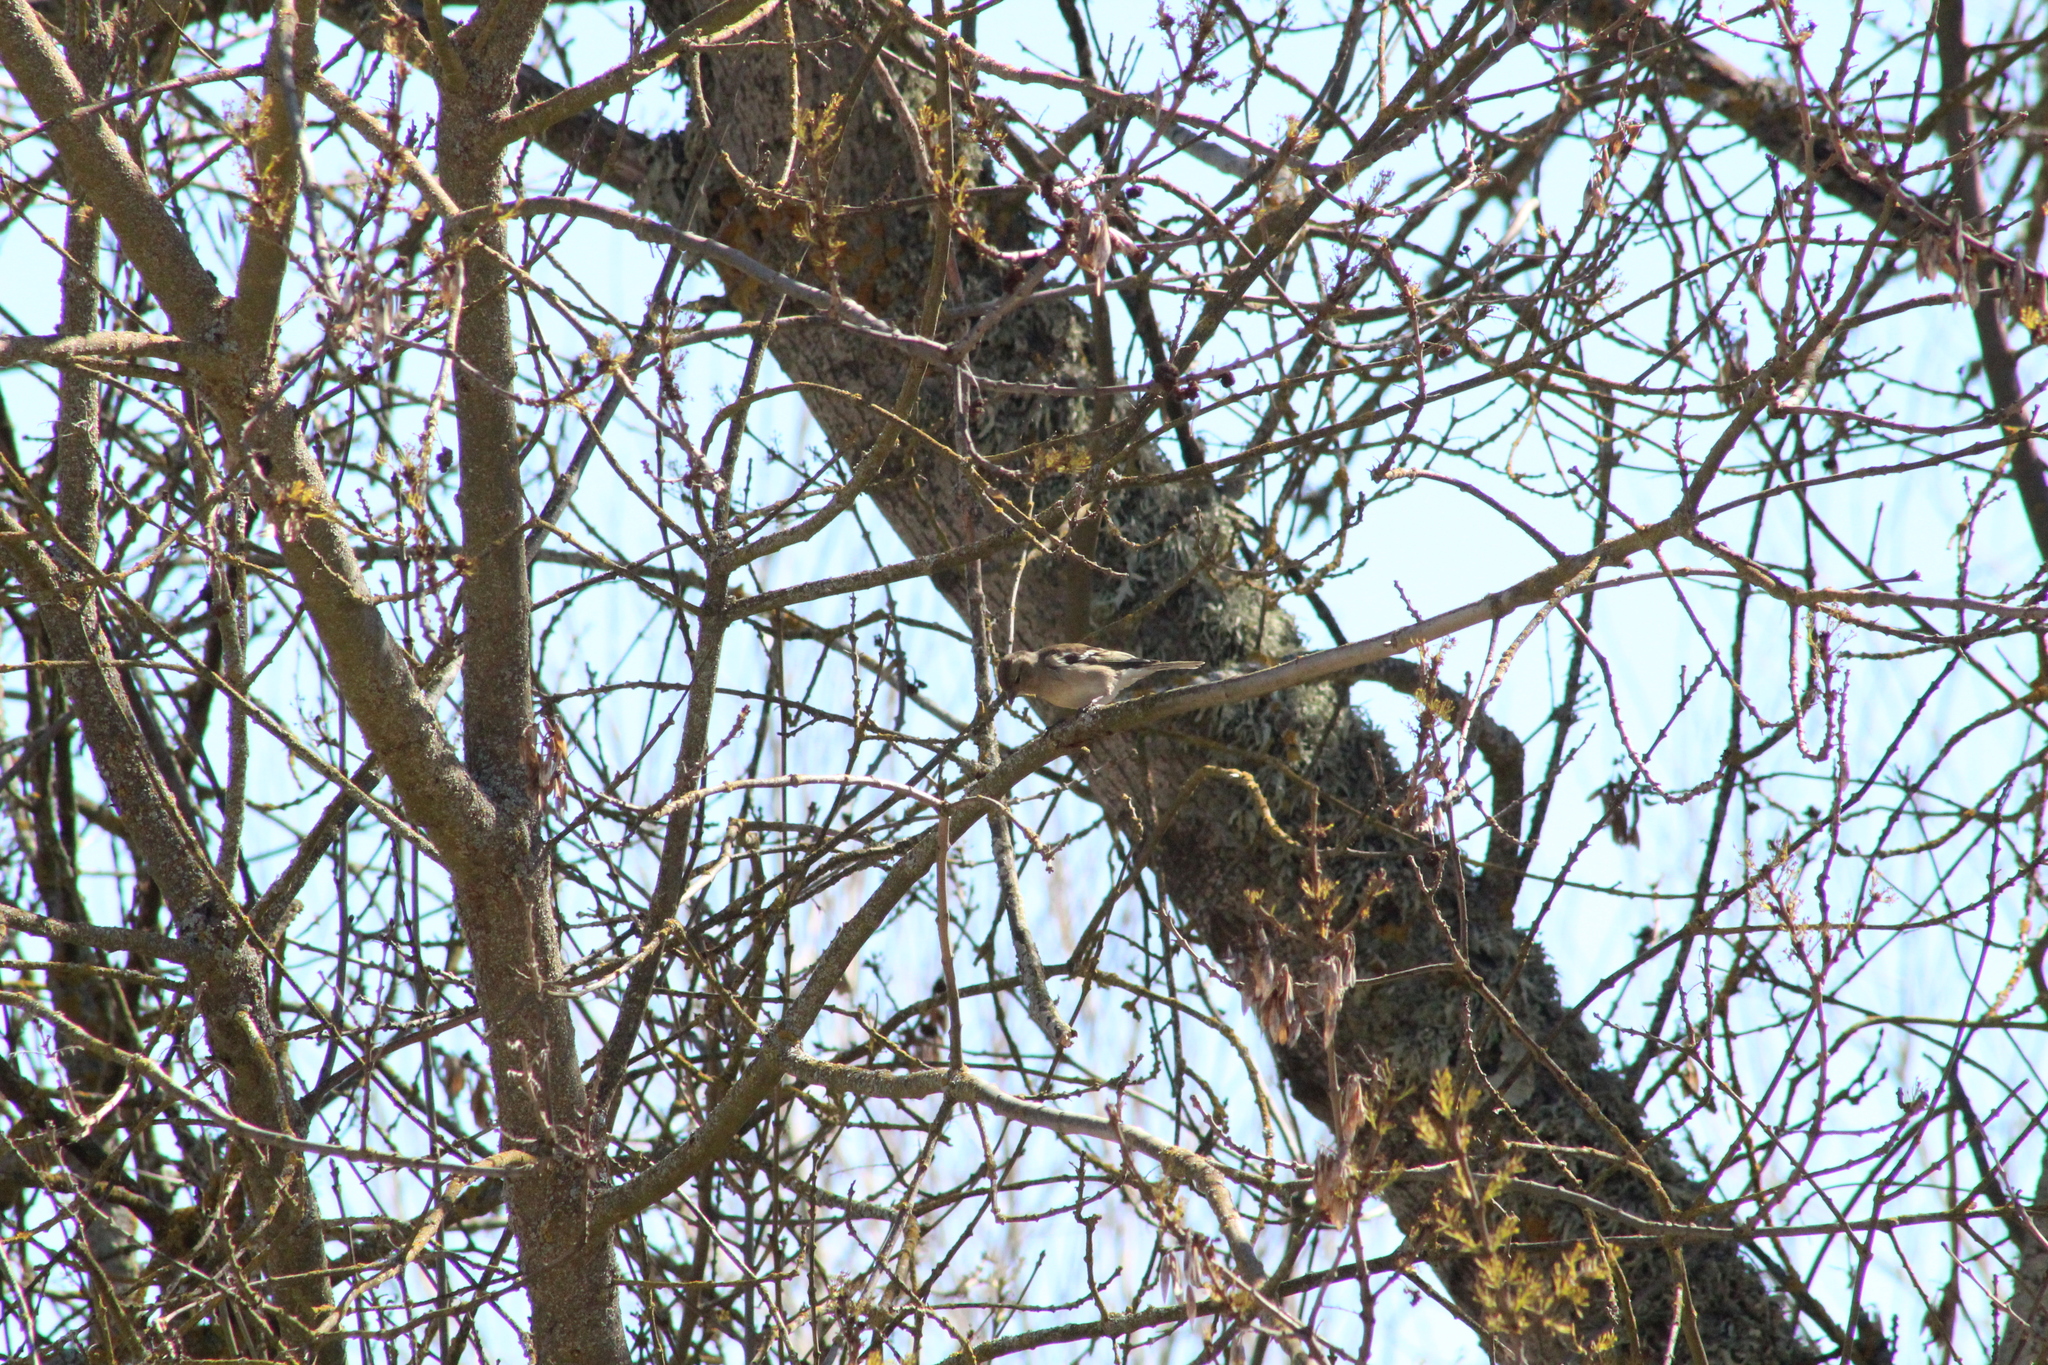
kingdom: Animalia
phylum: Chordata
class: Aves
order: Passeriformes
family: Fringillidae
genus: Fringilla
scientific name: Fringilla coelebs
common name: Common chaffinch
